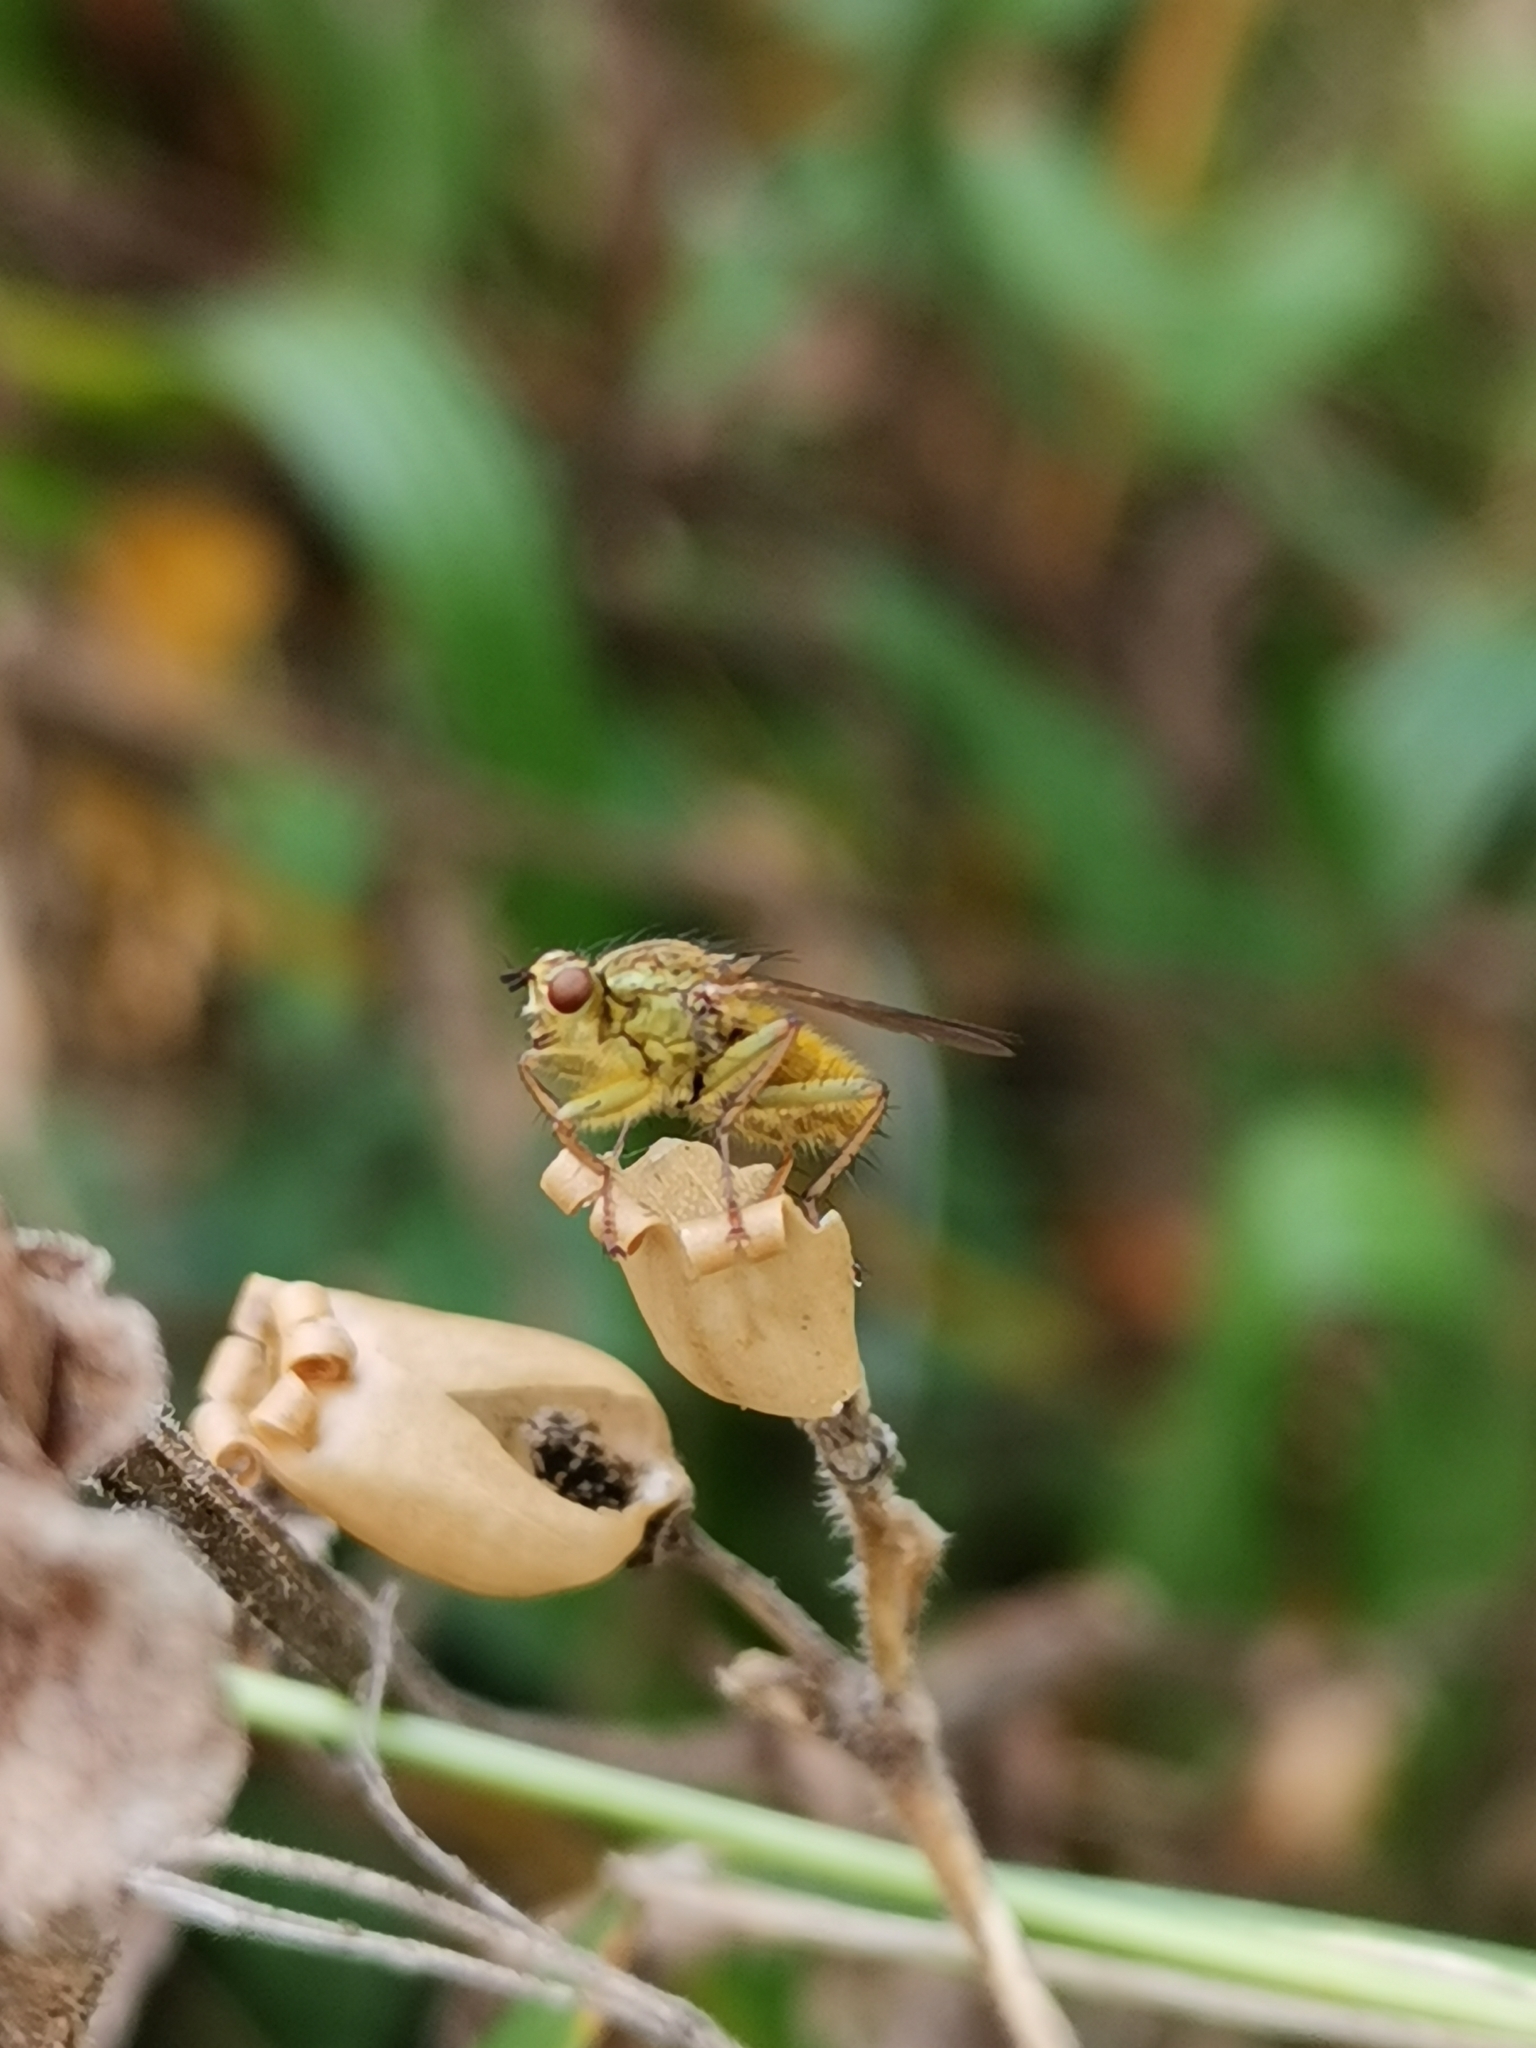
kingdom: Animalia
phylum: Arthropoda
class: Insecta
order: Diptera
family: Scathophagidae
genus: Scathophaga
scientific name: Scathophaga stercoraria
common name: Yellow dung fly
